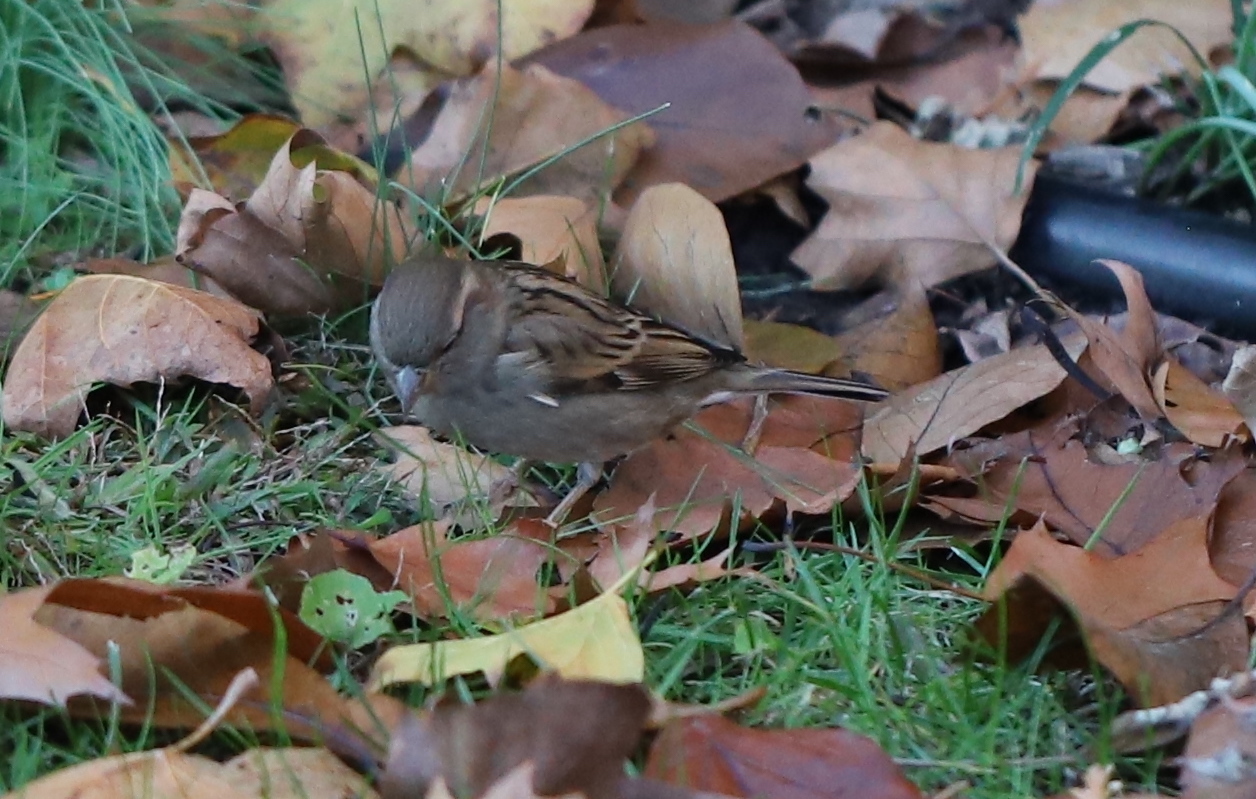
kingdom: Animalia
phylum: Chordata
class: Aves
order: Passeriformes
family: Passeridae
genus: Passer
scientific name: Passer domesticus
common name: House sparrow
